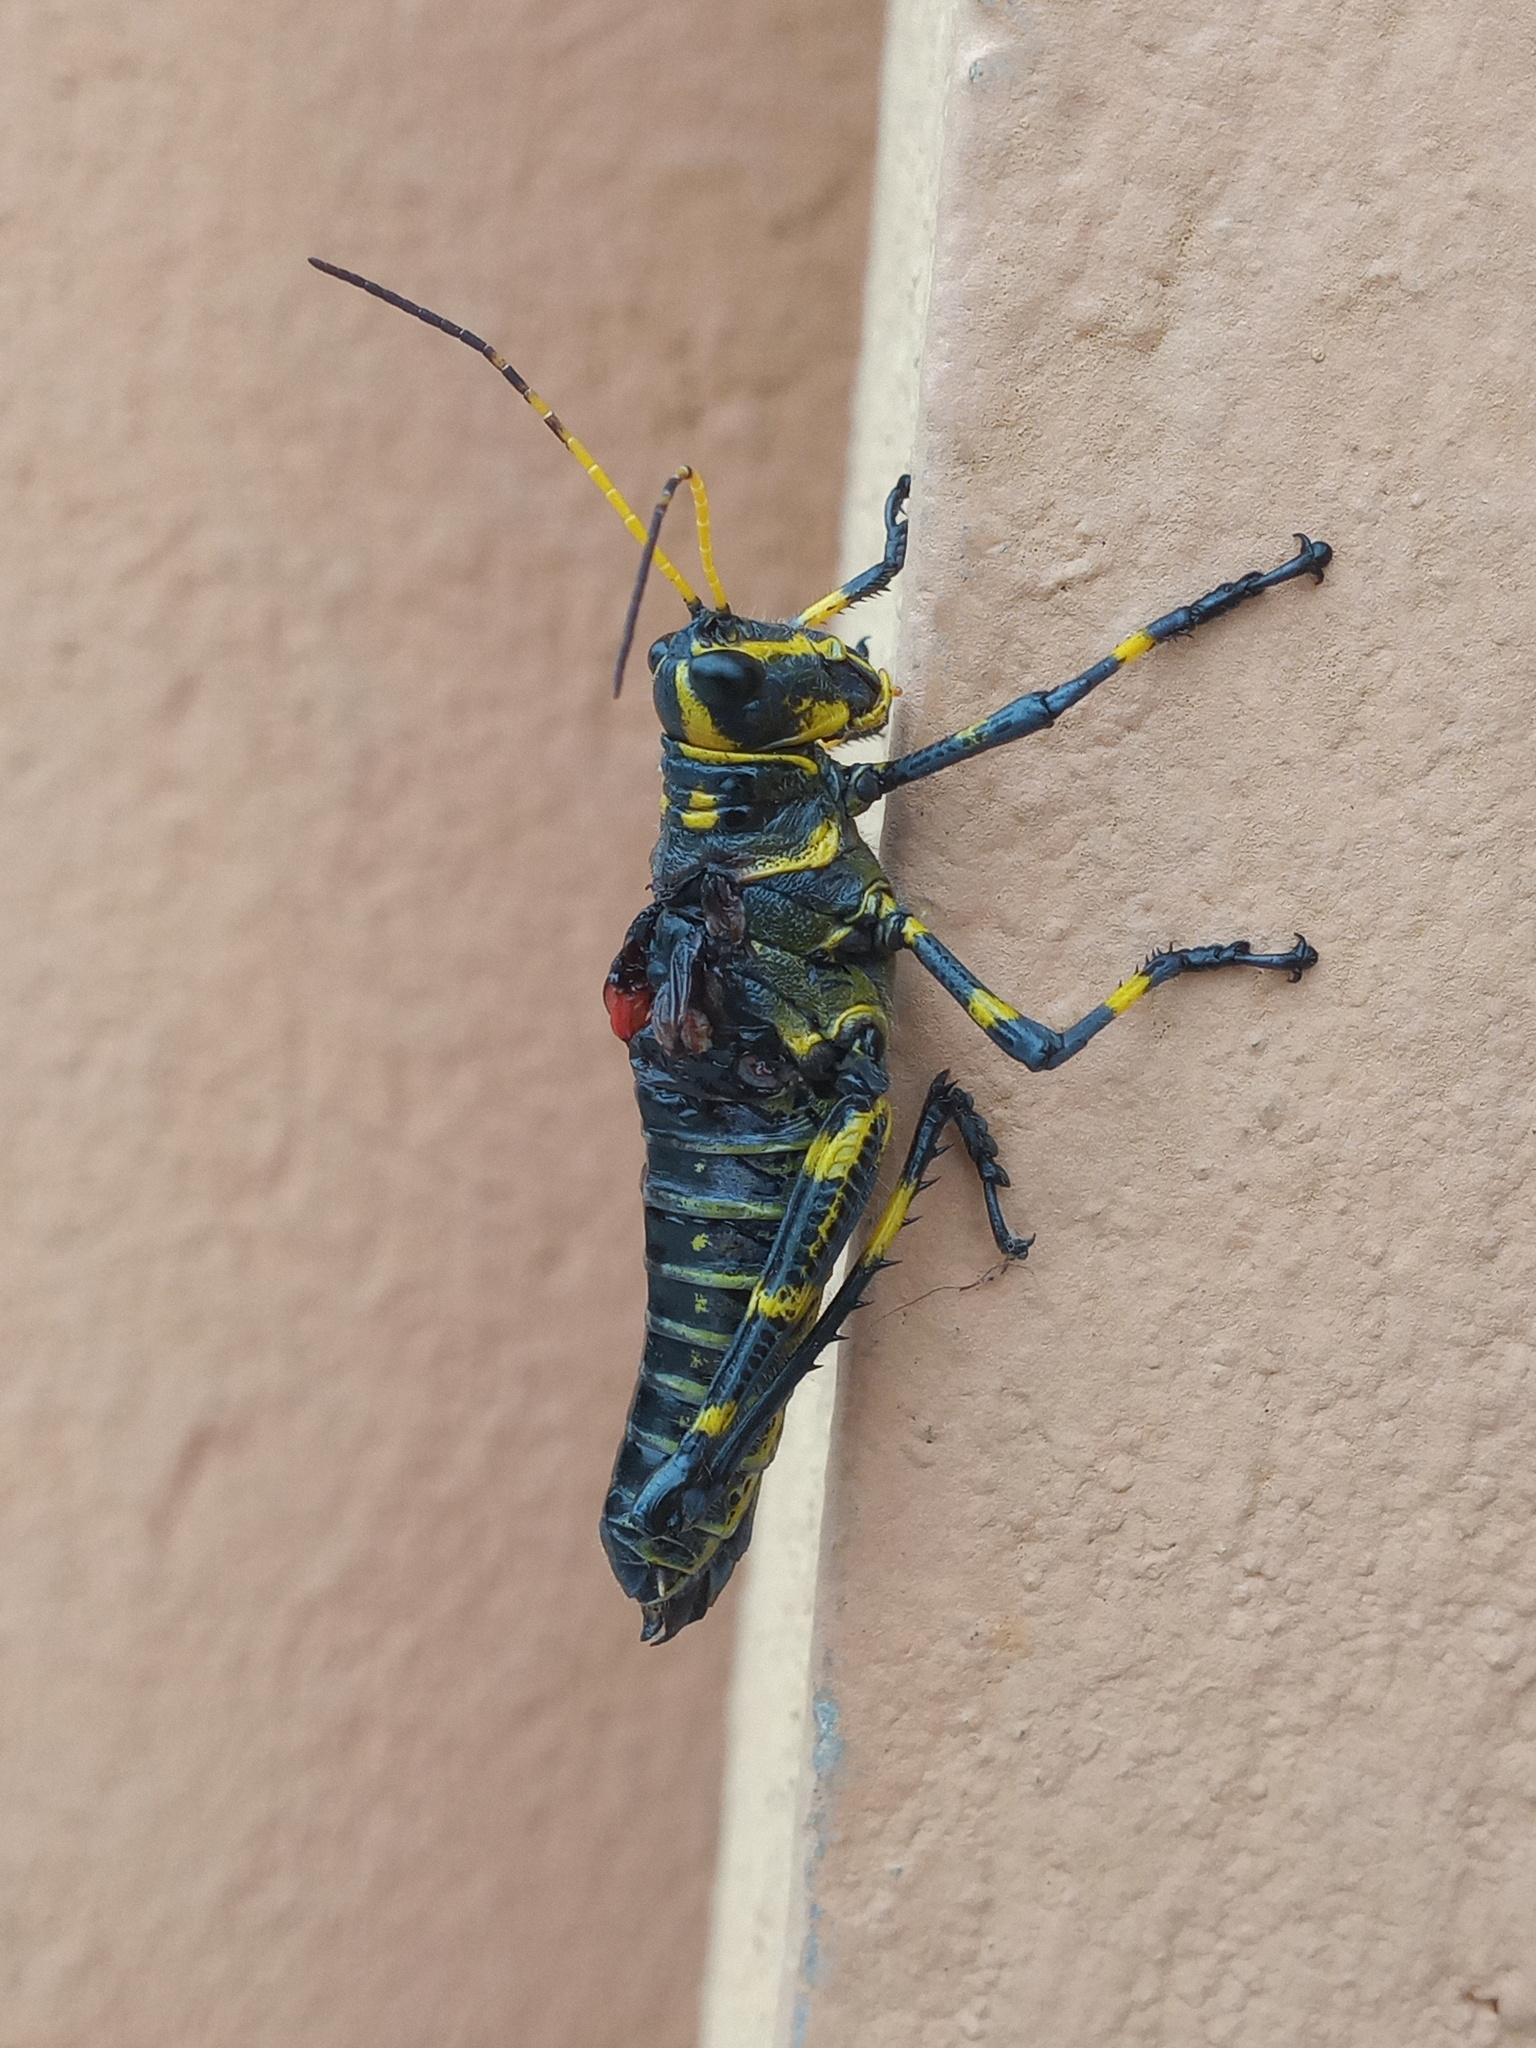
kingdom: Animalia
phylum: Arthropoda
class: Insecta
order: Orthoptera
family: Romaleidae
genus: Chromacris
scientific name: Chromacris colorata
